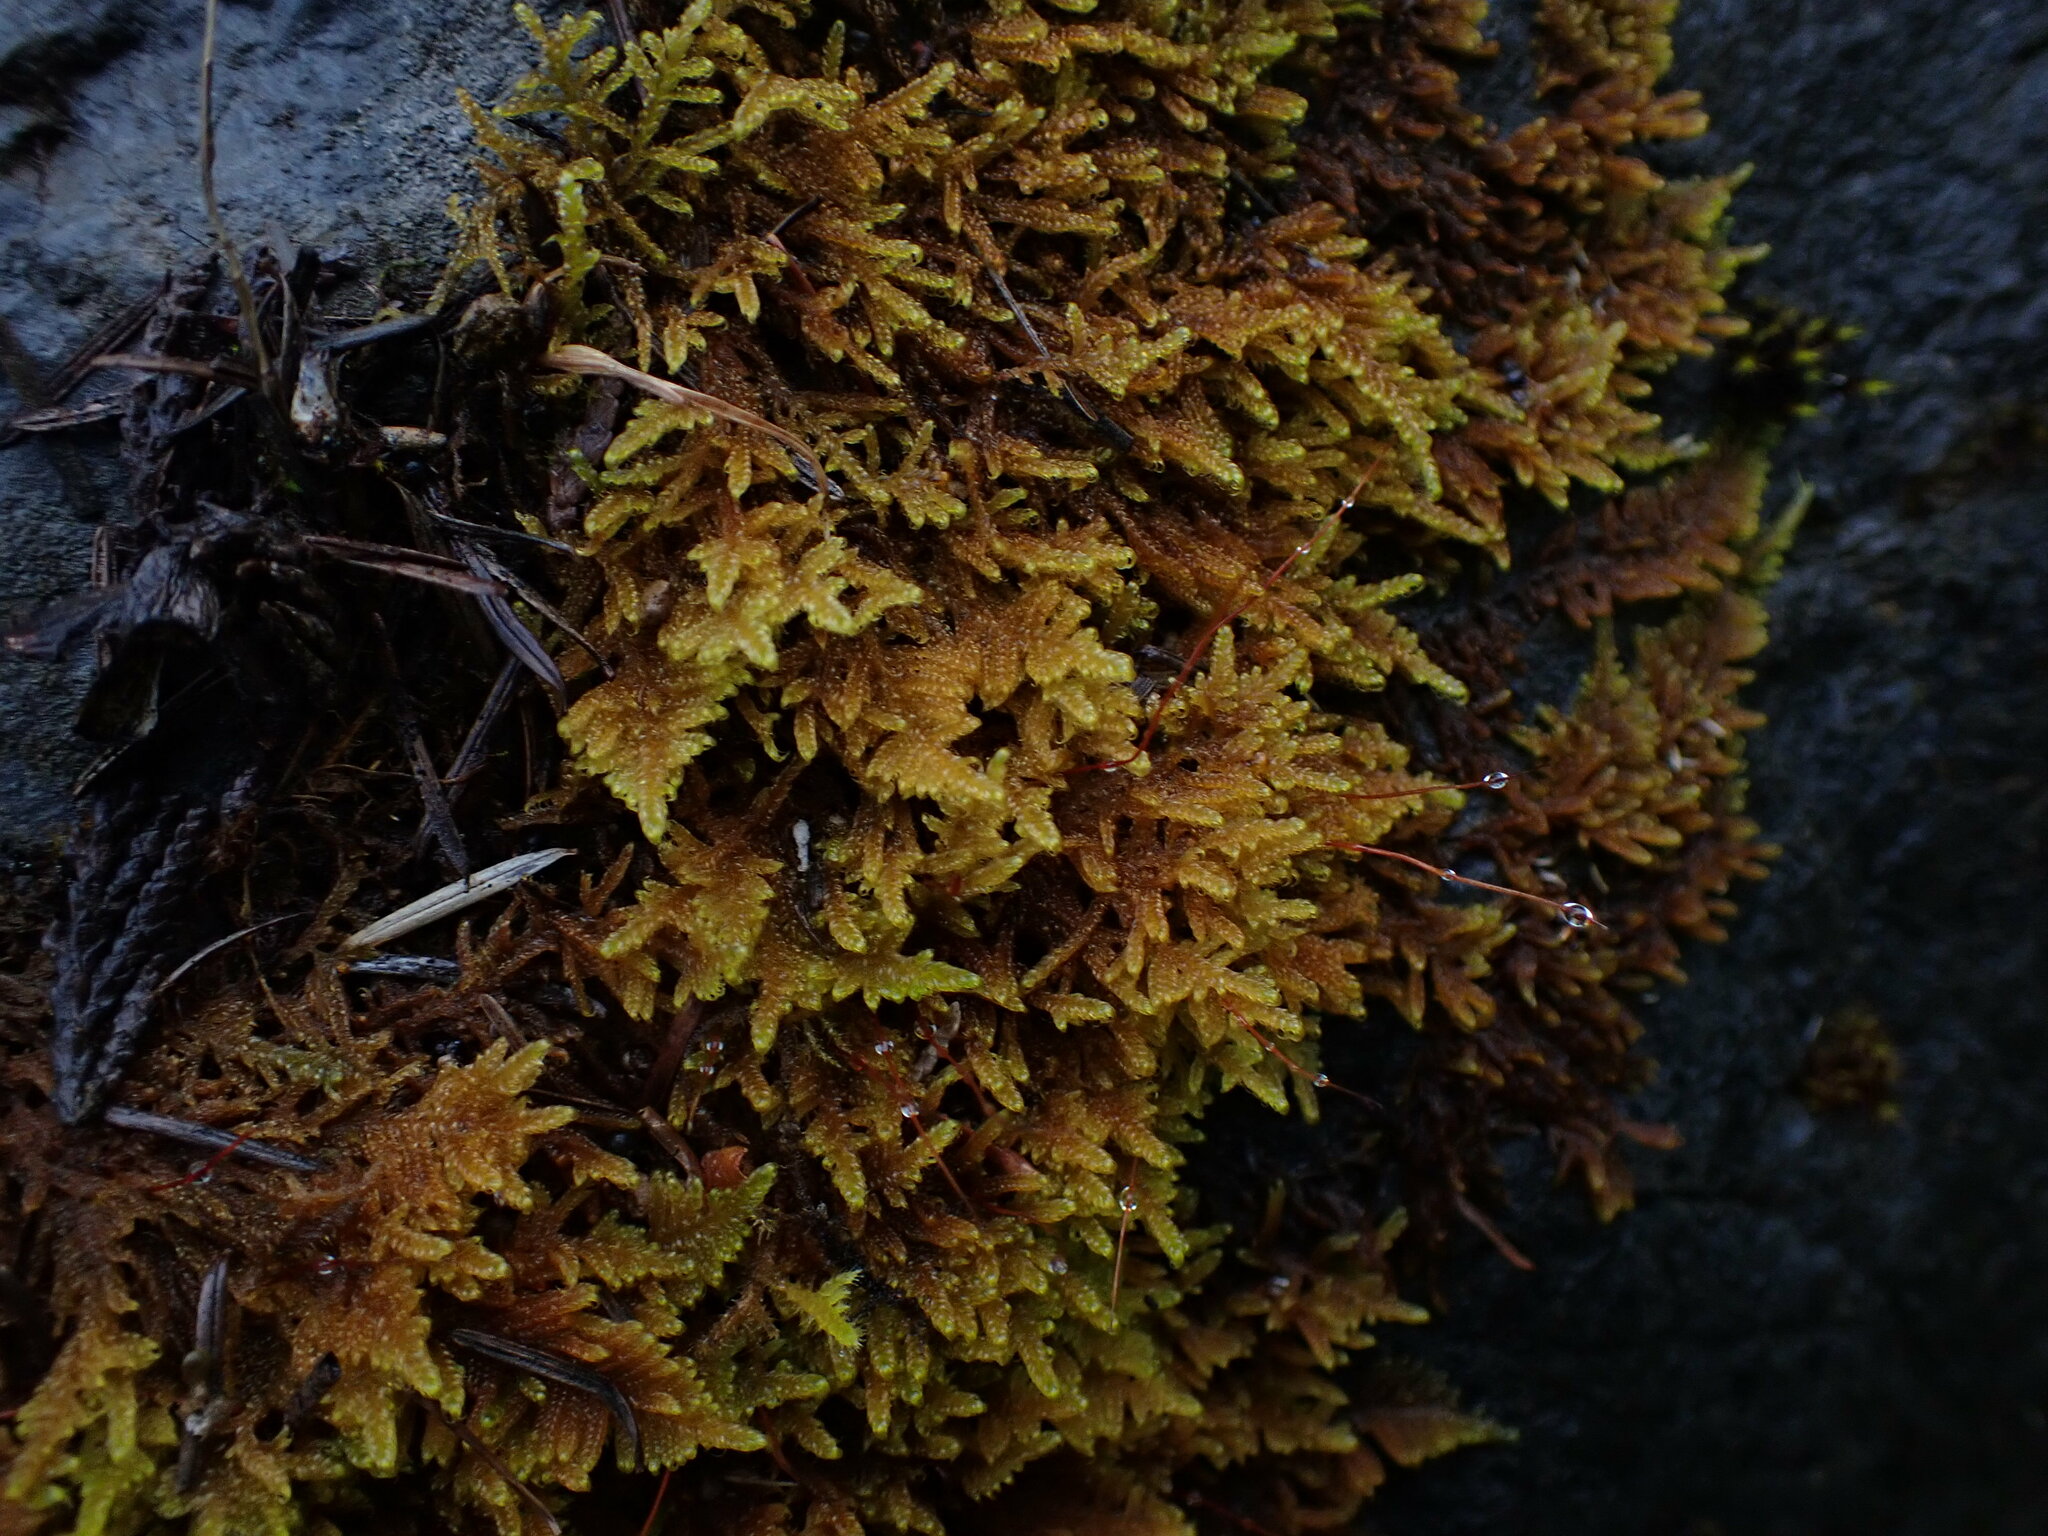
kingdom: Plantae
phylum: Bryophyta
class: Bryopsida
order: Hypnales
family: Stereodontaceae
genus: Stereodon
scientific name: Stereodon subimponens
